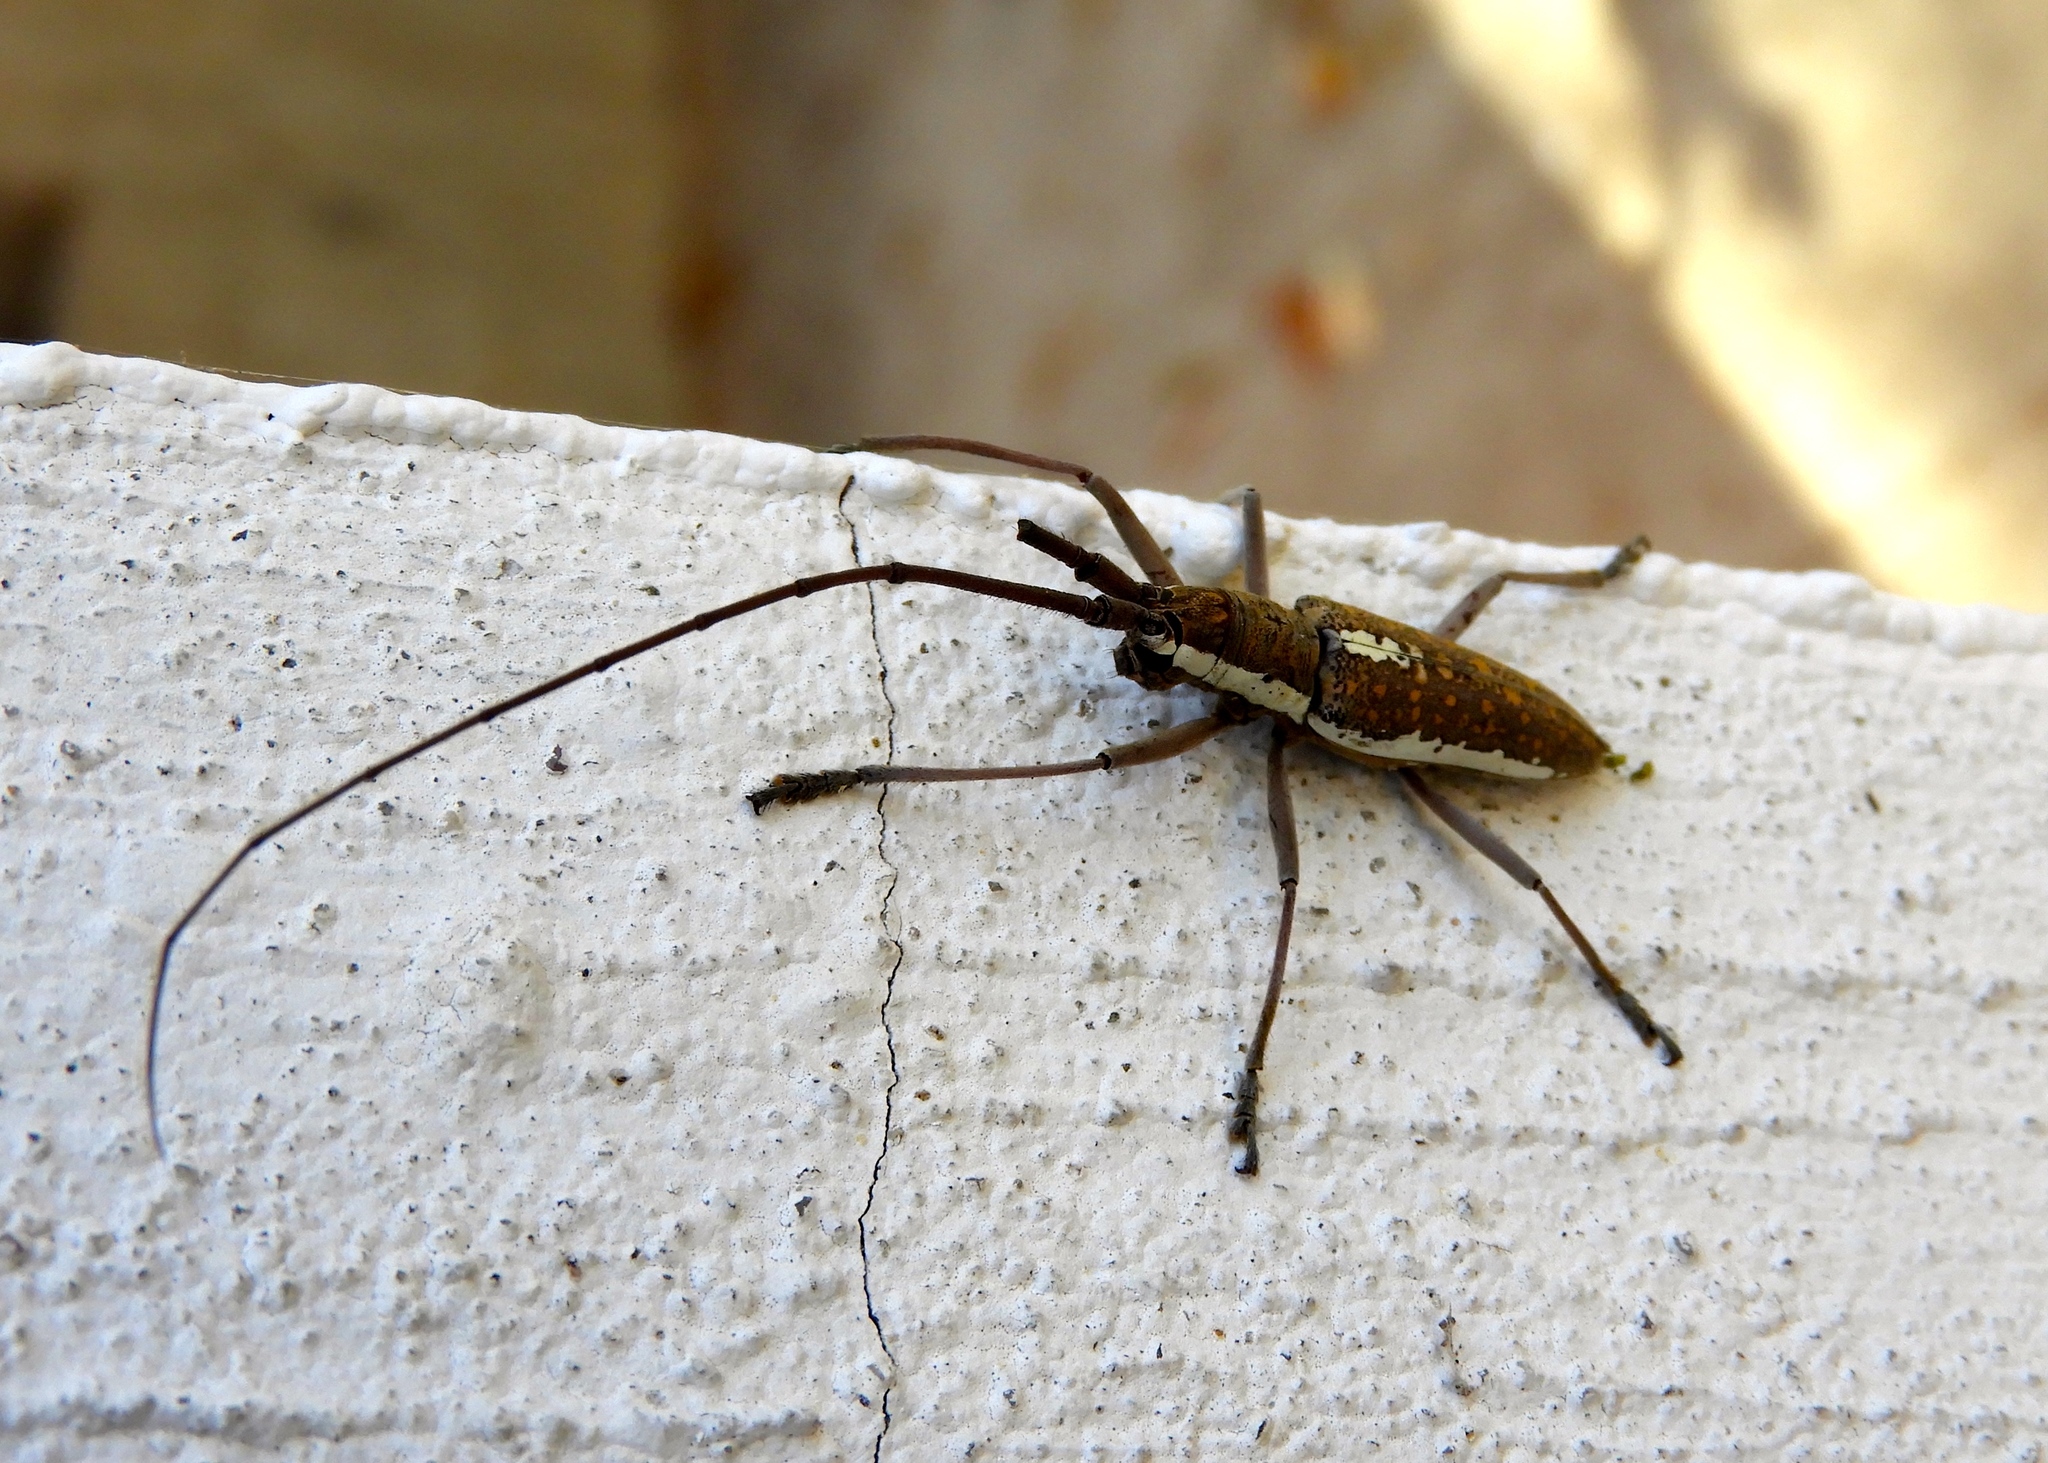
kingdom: Animalia
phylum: Arthropoda
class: Insecta
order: Coleoptera
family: Cerambycidae
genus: Neoptychodes
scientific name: Neoptychodes trilineatus
